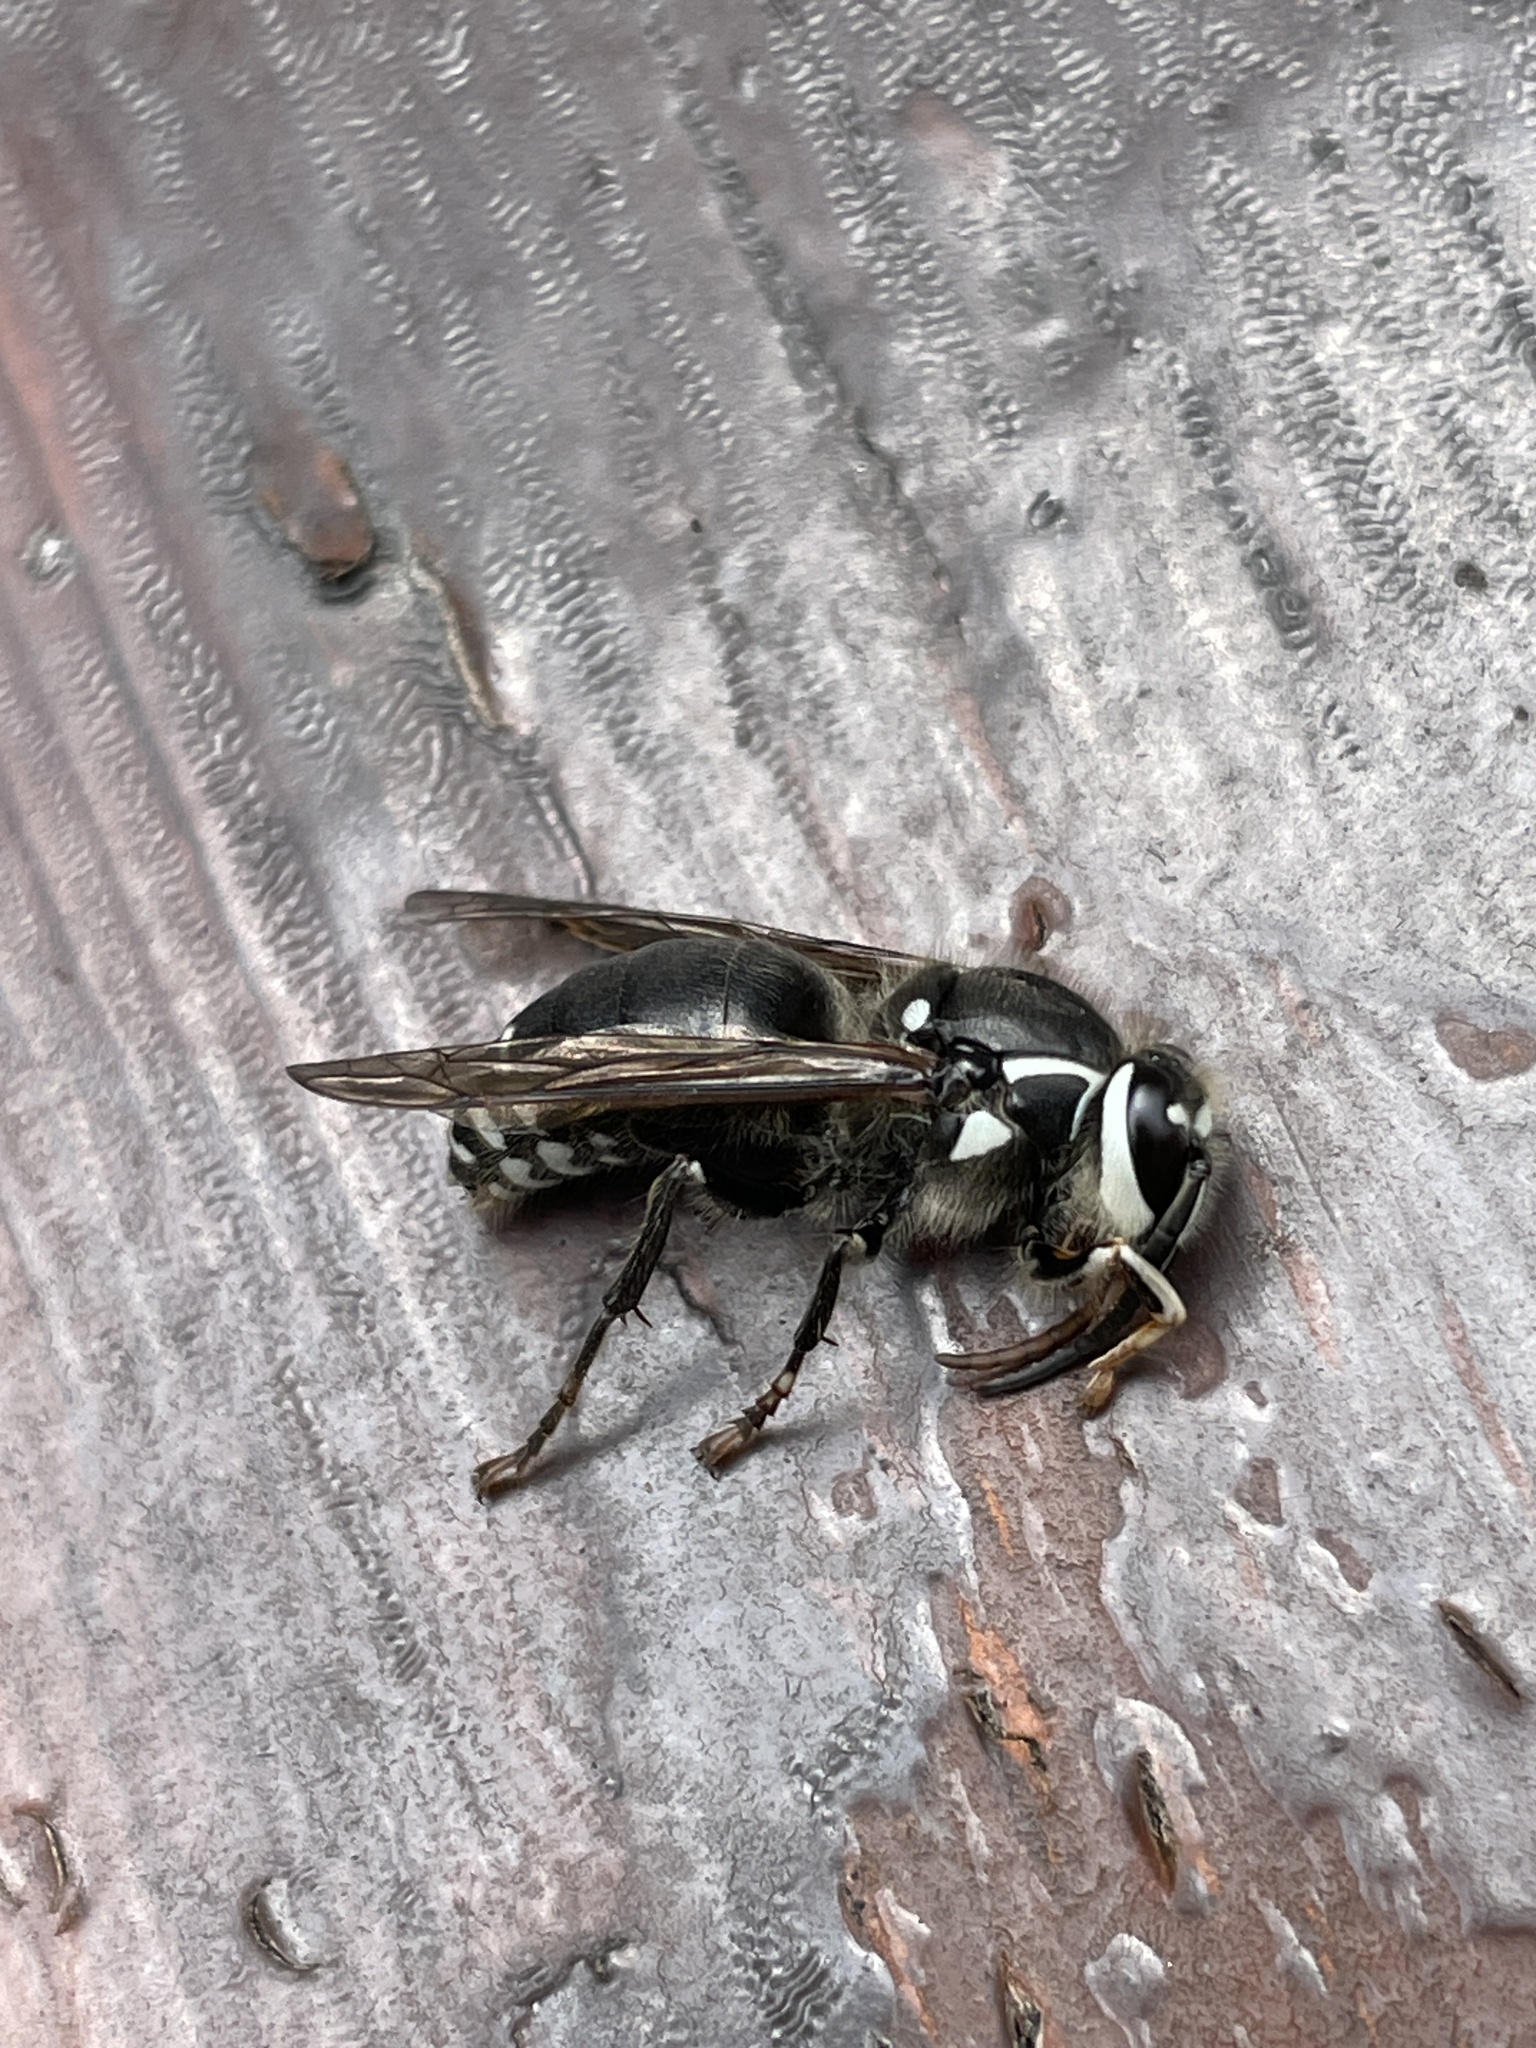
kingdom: Animalia
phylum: Arthropoda
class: Insecta
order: Hymenoptera
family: Vespidae
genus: Dolichovespula
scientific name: Dolichovespula maculata
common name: Bald-faced hornet
